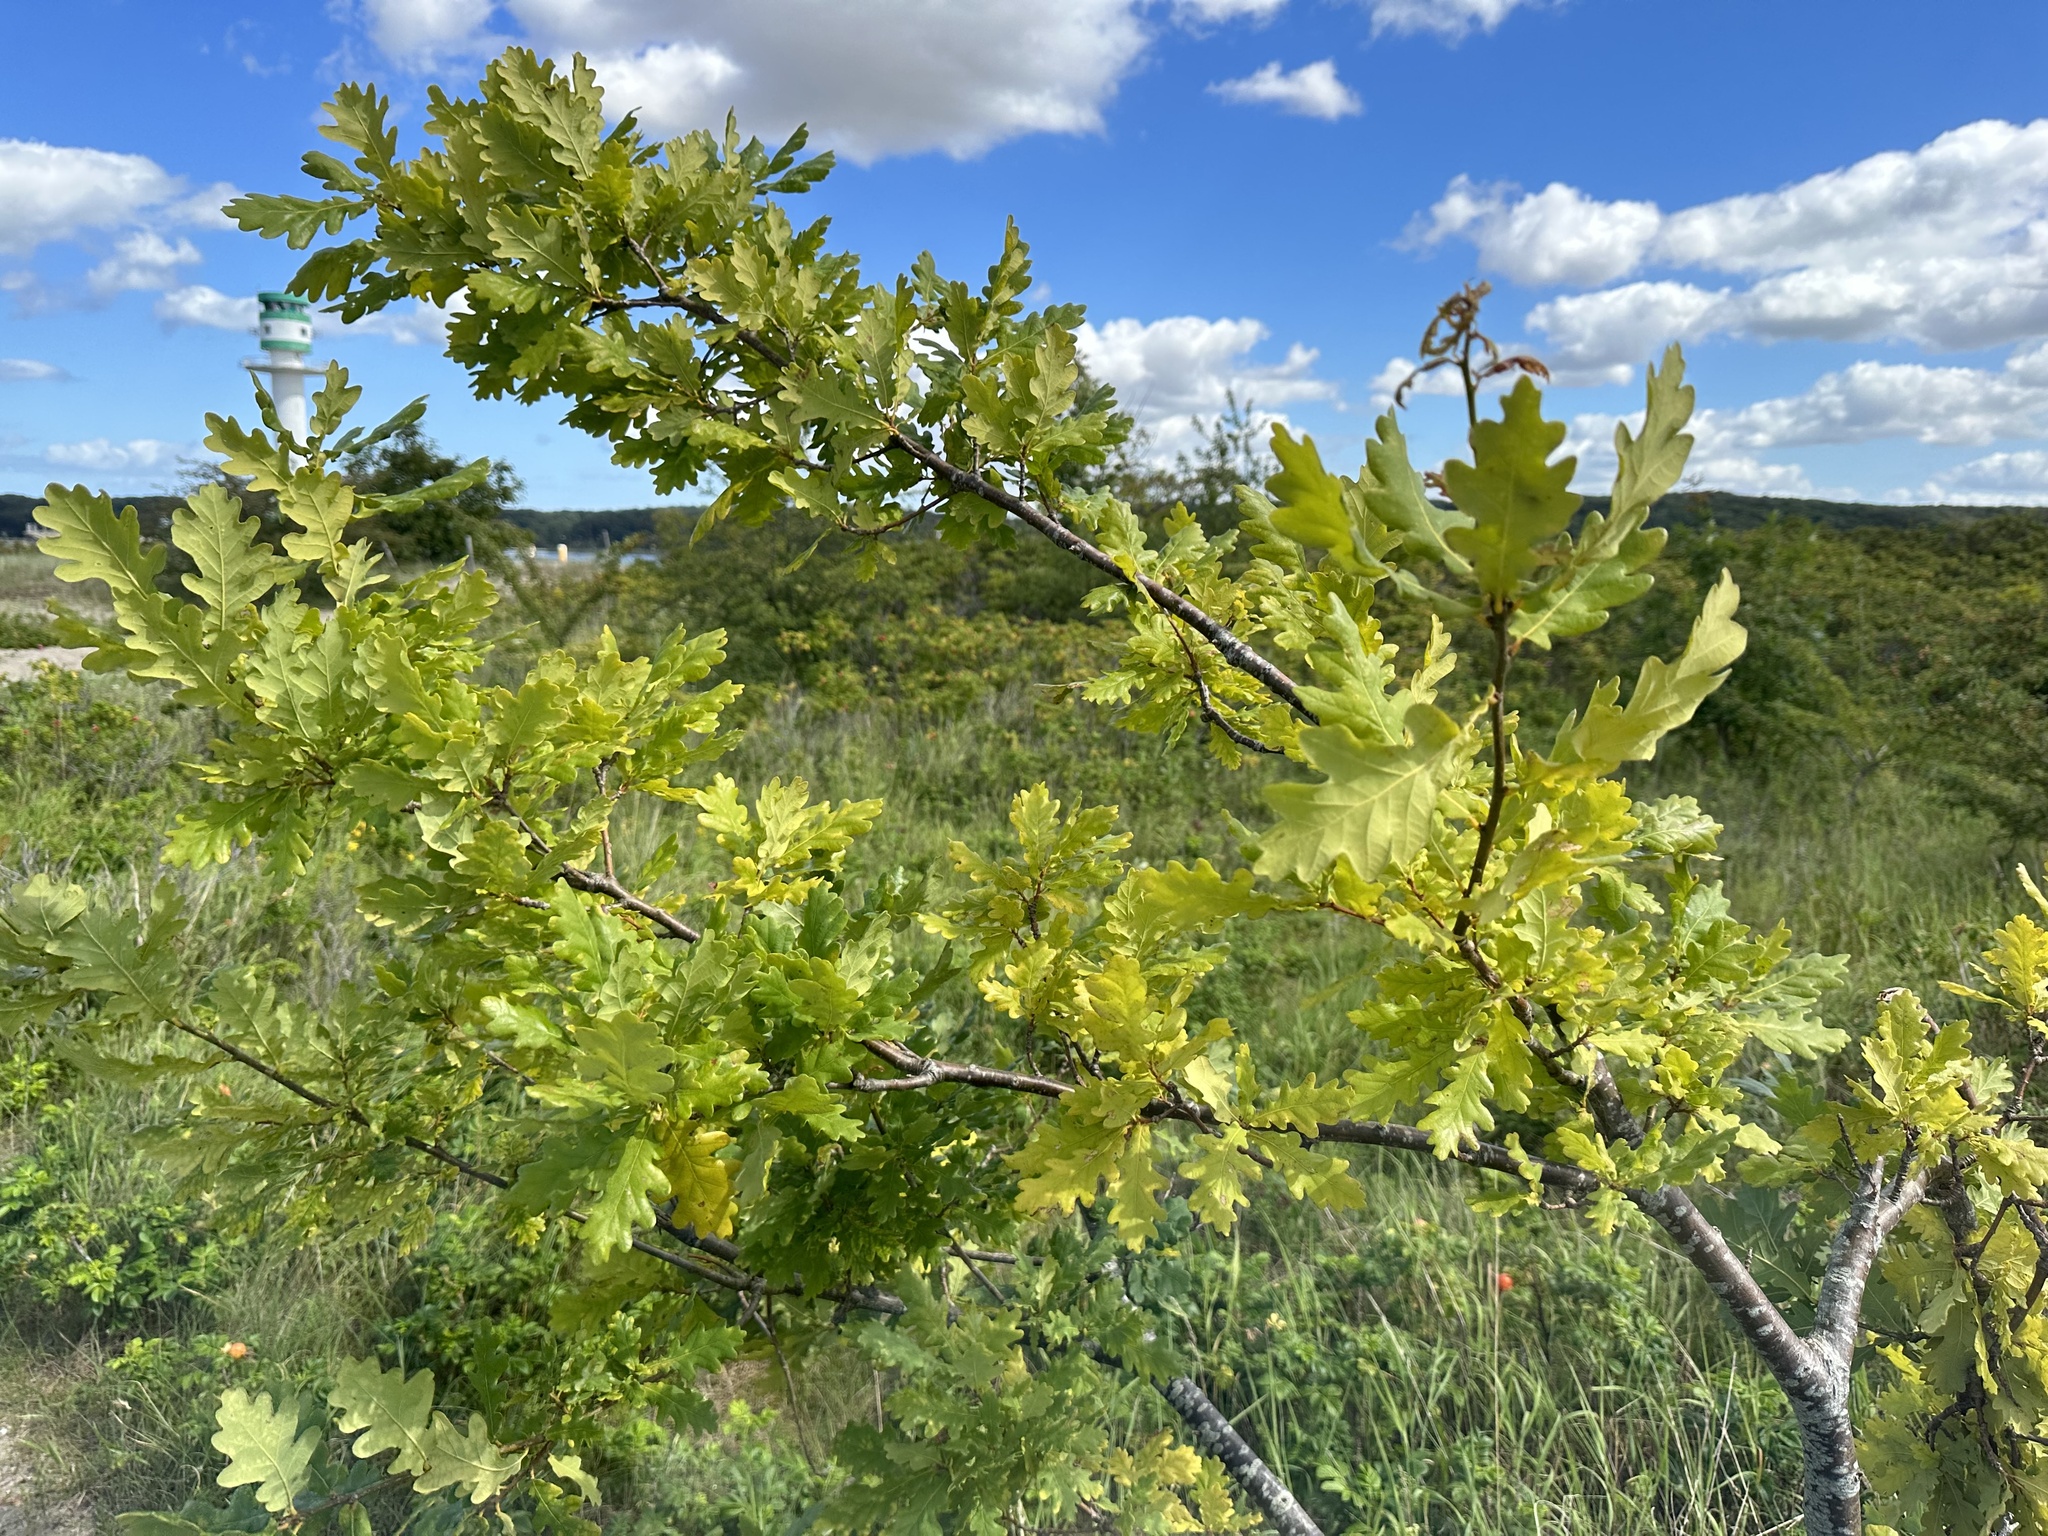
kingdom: Plantae
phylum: Tracheophyta
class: Magnoliopsida
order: Fagales
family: Fagaceae
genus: Quercus
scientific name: Quercus robur
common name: Pedunculate oak
